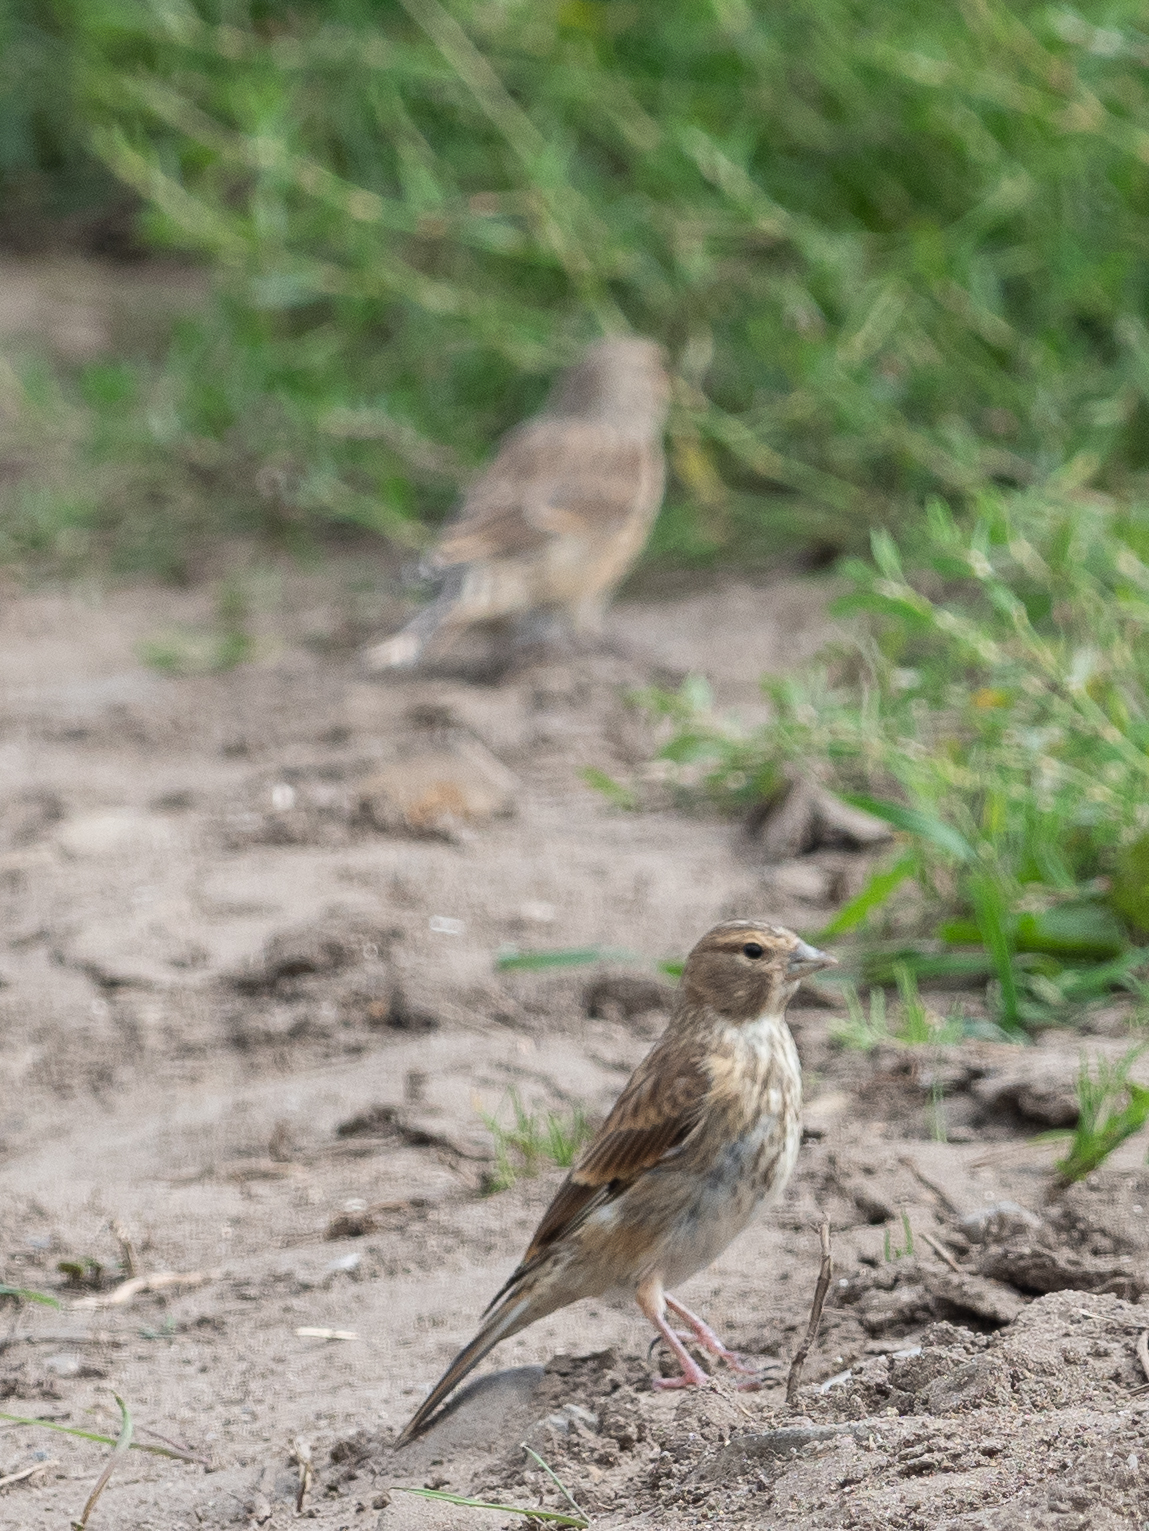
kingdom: Animalia
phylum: Chordata
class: Aves
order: Passeriformes
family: Fringillidae
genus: Linaria
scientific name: Linaria cannabina
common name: Common linnet
